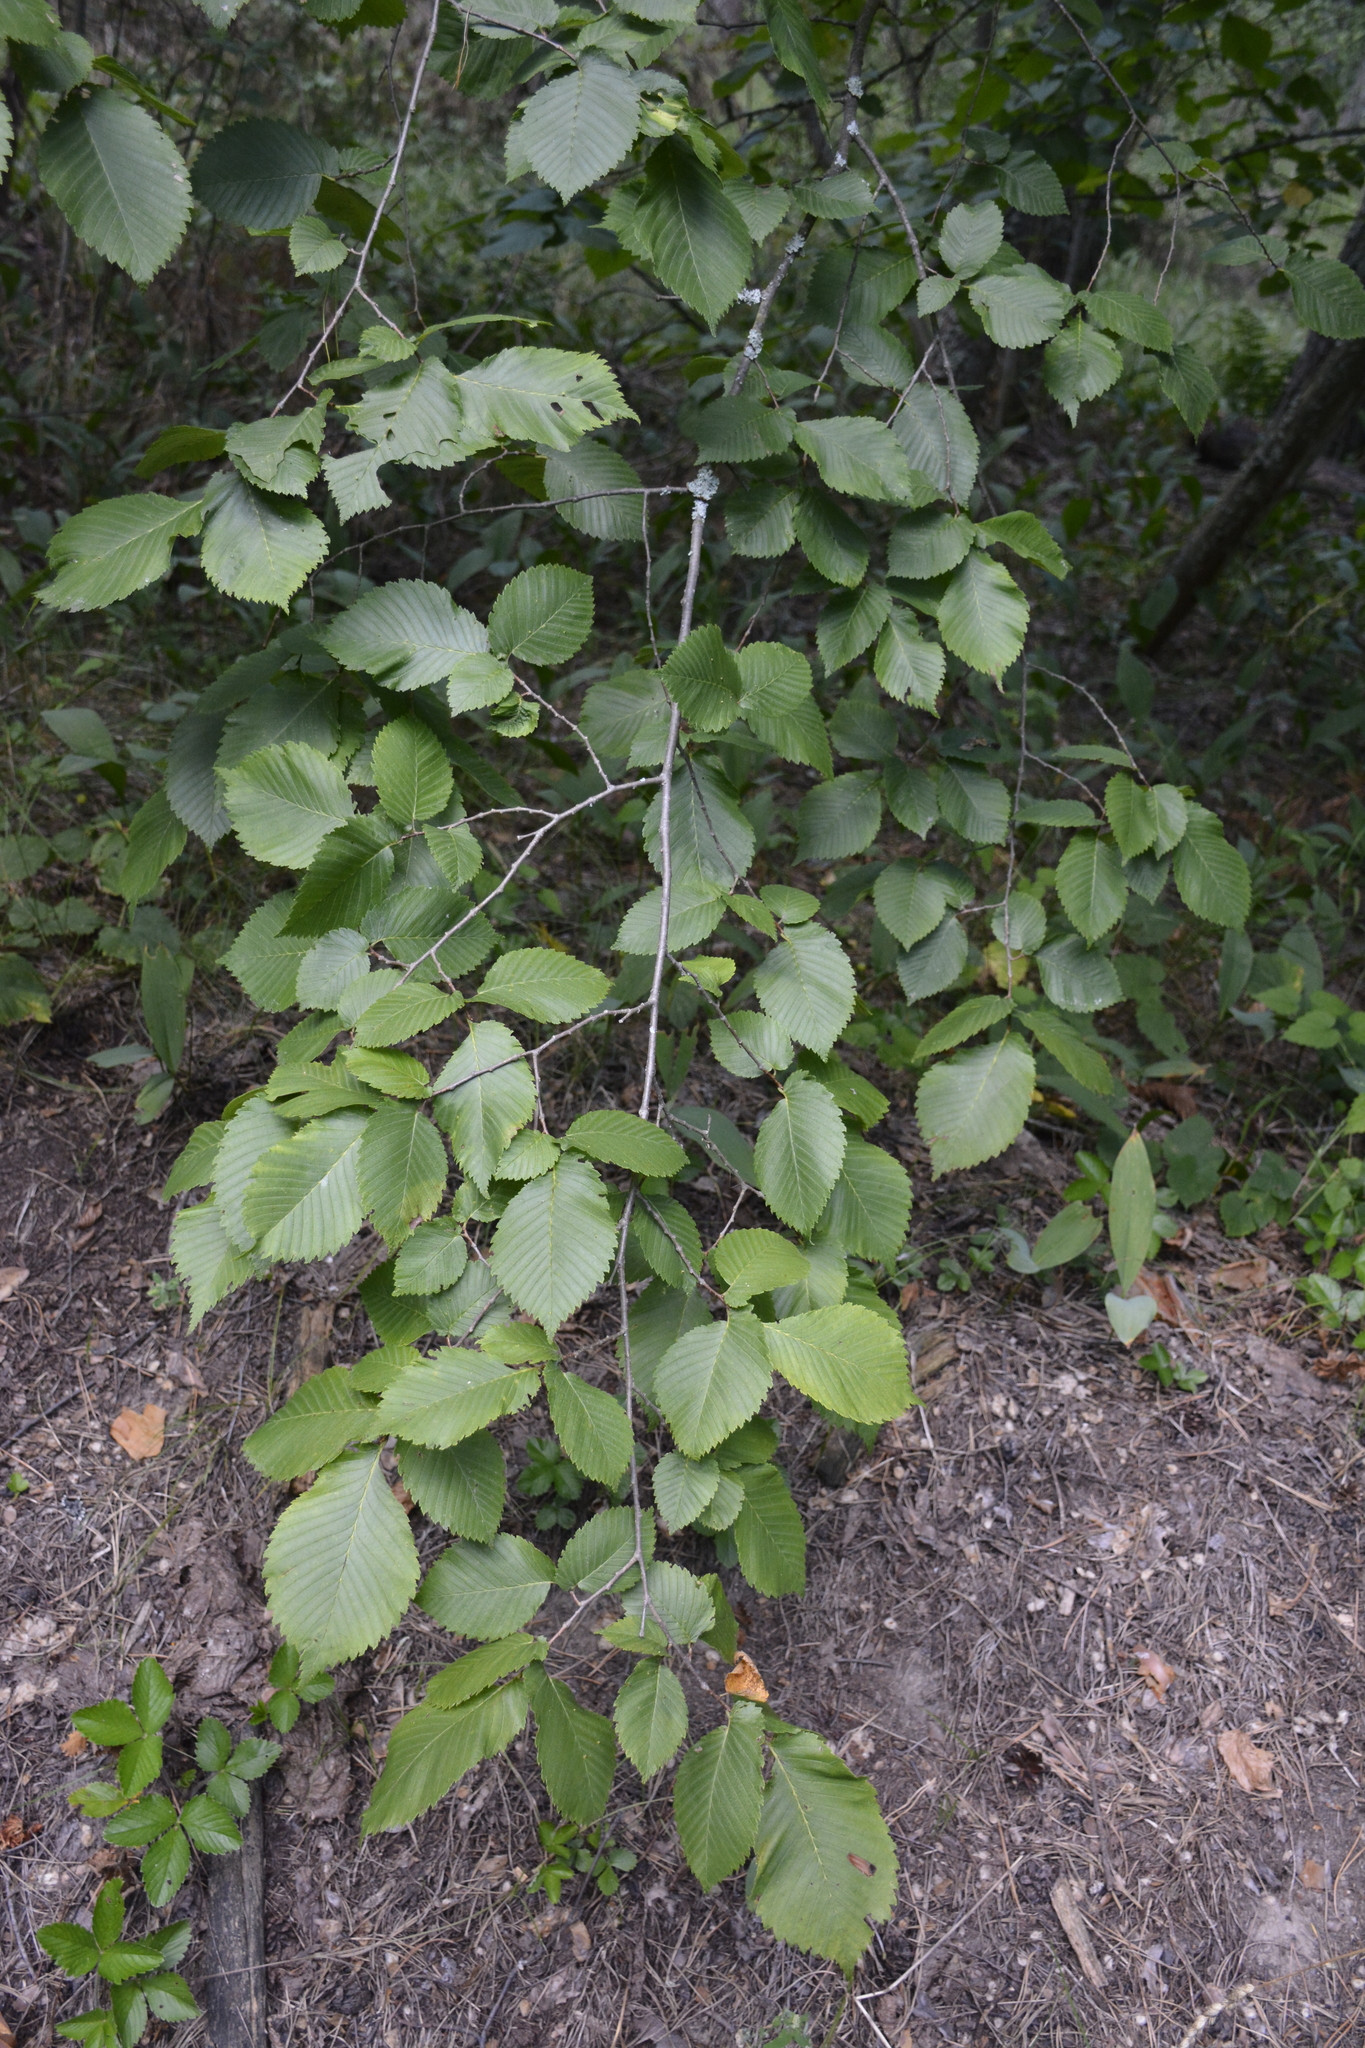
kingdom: Plantae
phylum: Tracheophyta
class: Magnoliopsida
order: Rosales
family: Ulmaceae
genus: Ulmus
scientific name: Ulmus laevis
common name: European white-elm
